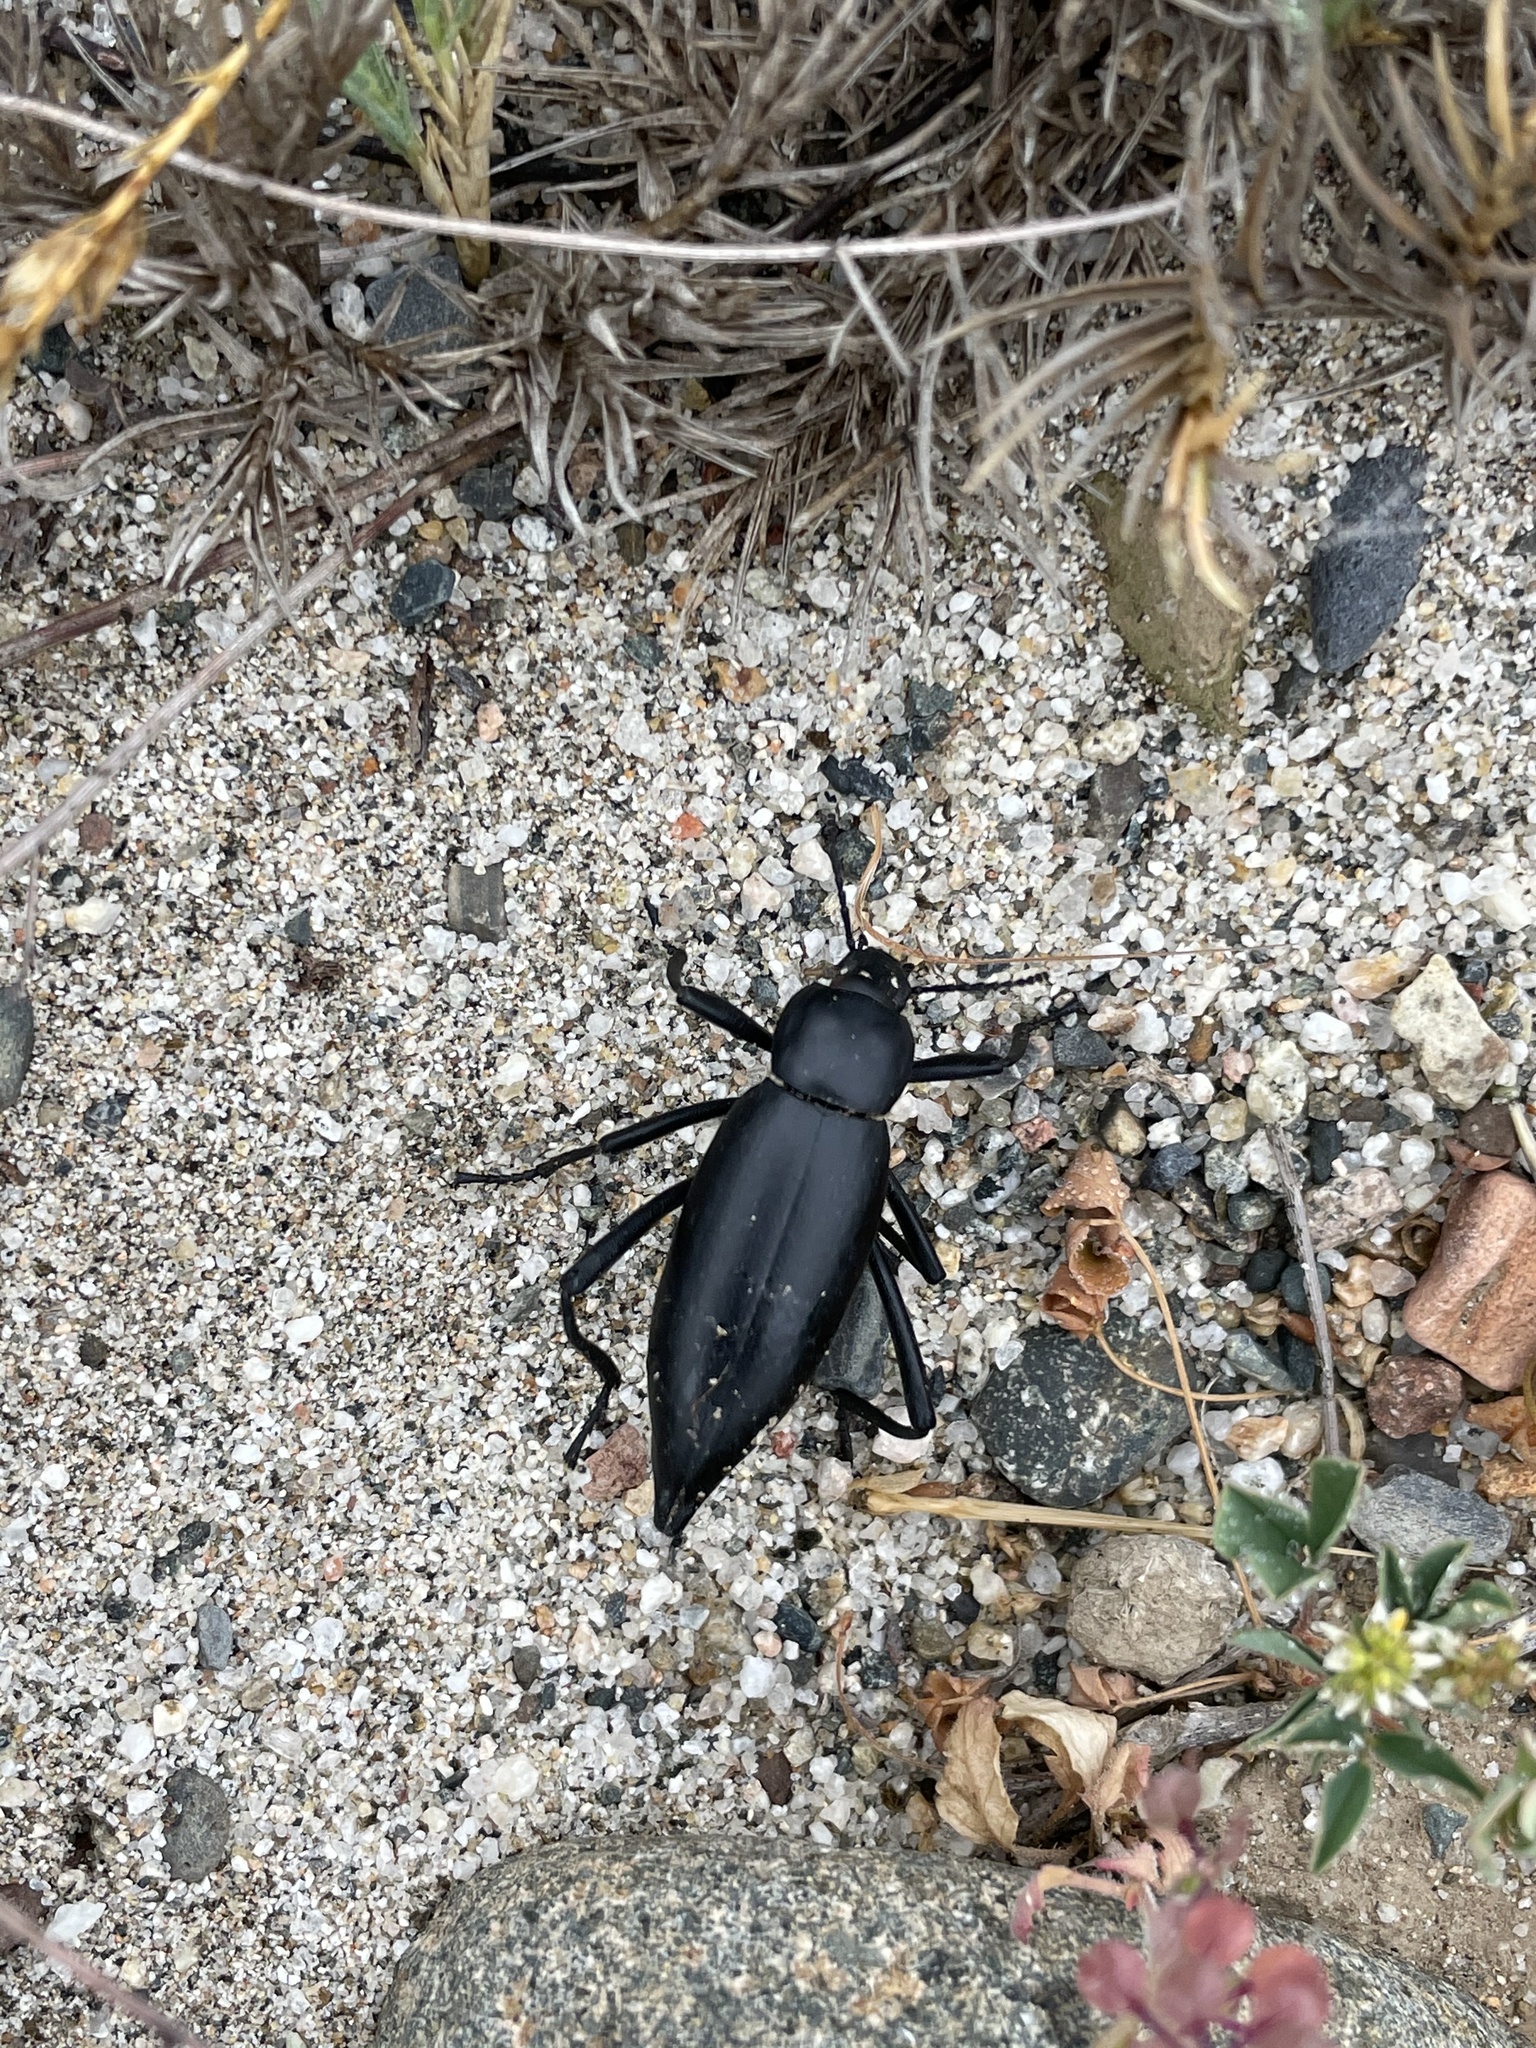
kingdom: Animalia
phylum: Arthropoda
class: Insecta
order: Coleoptera
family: Tenebrionidae
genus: Eleodes
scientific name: Eleodes discincta
